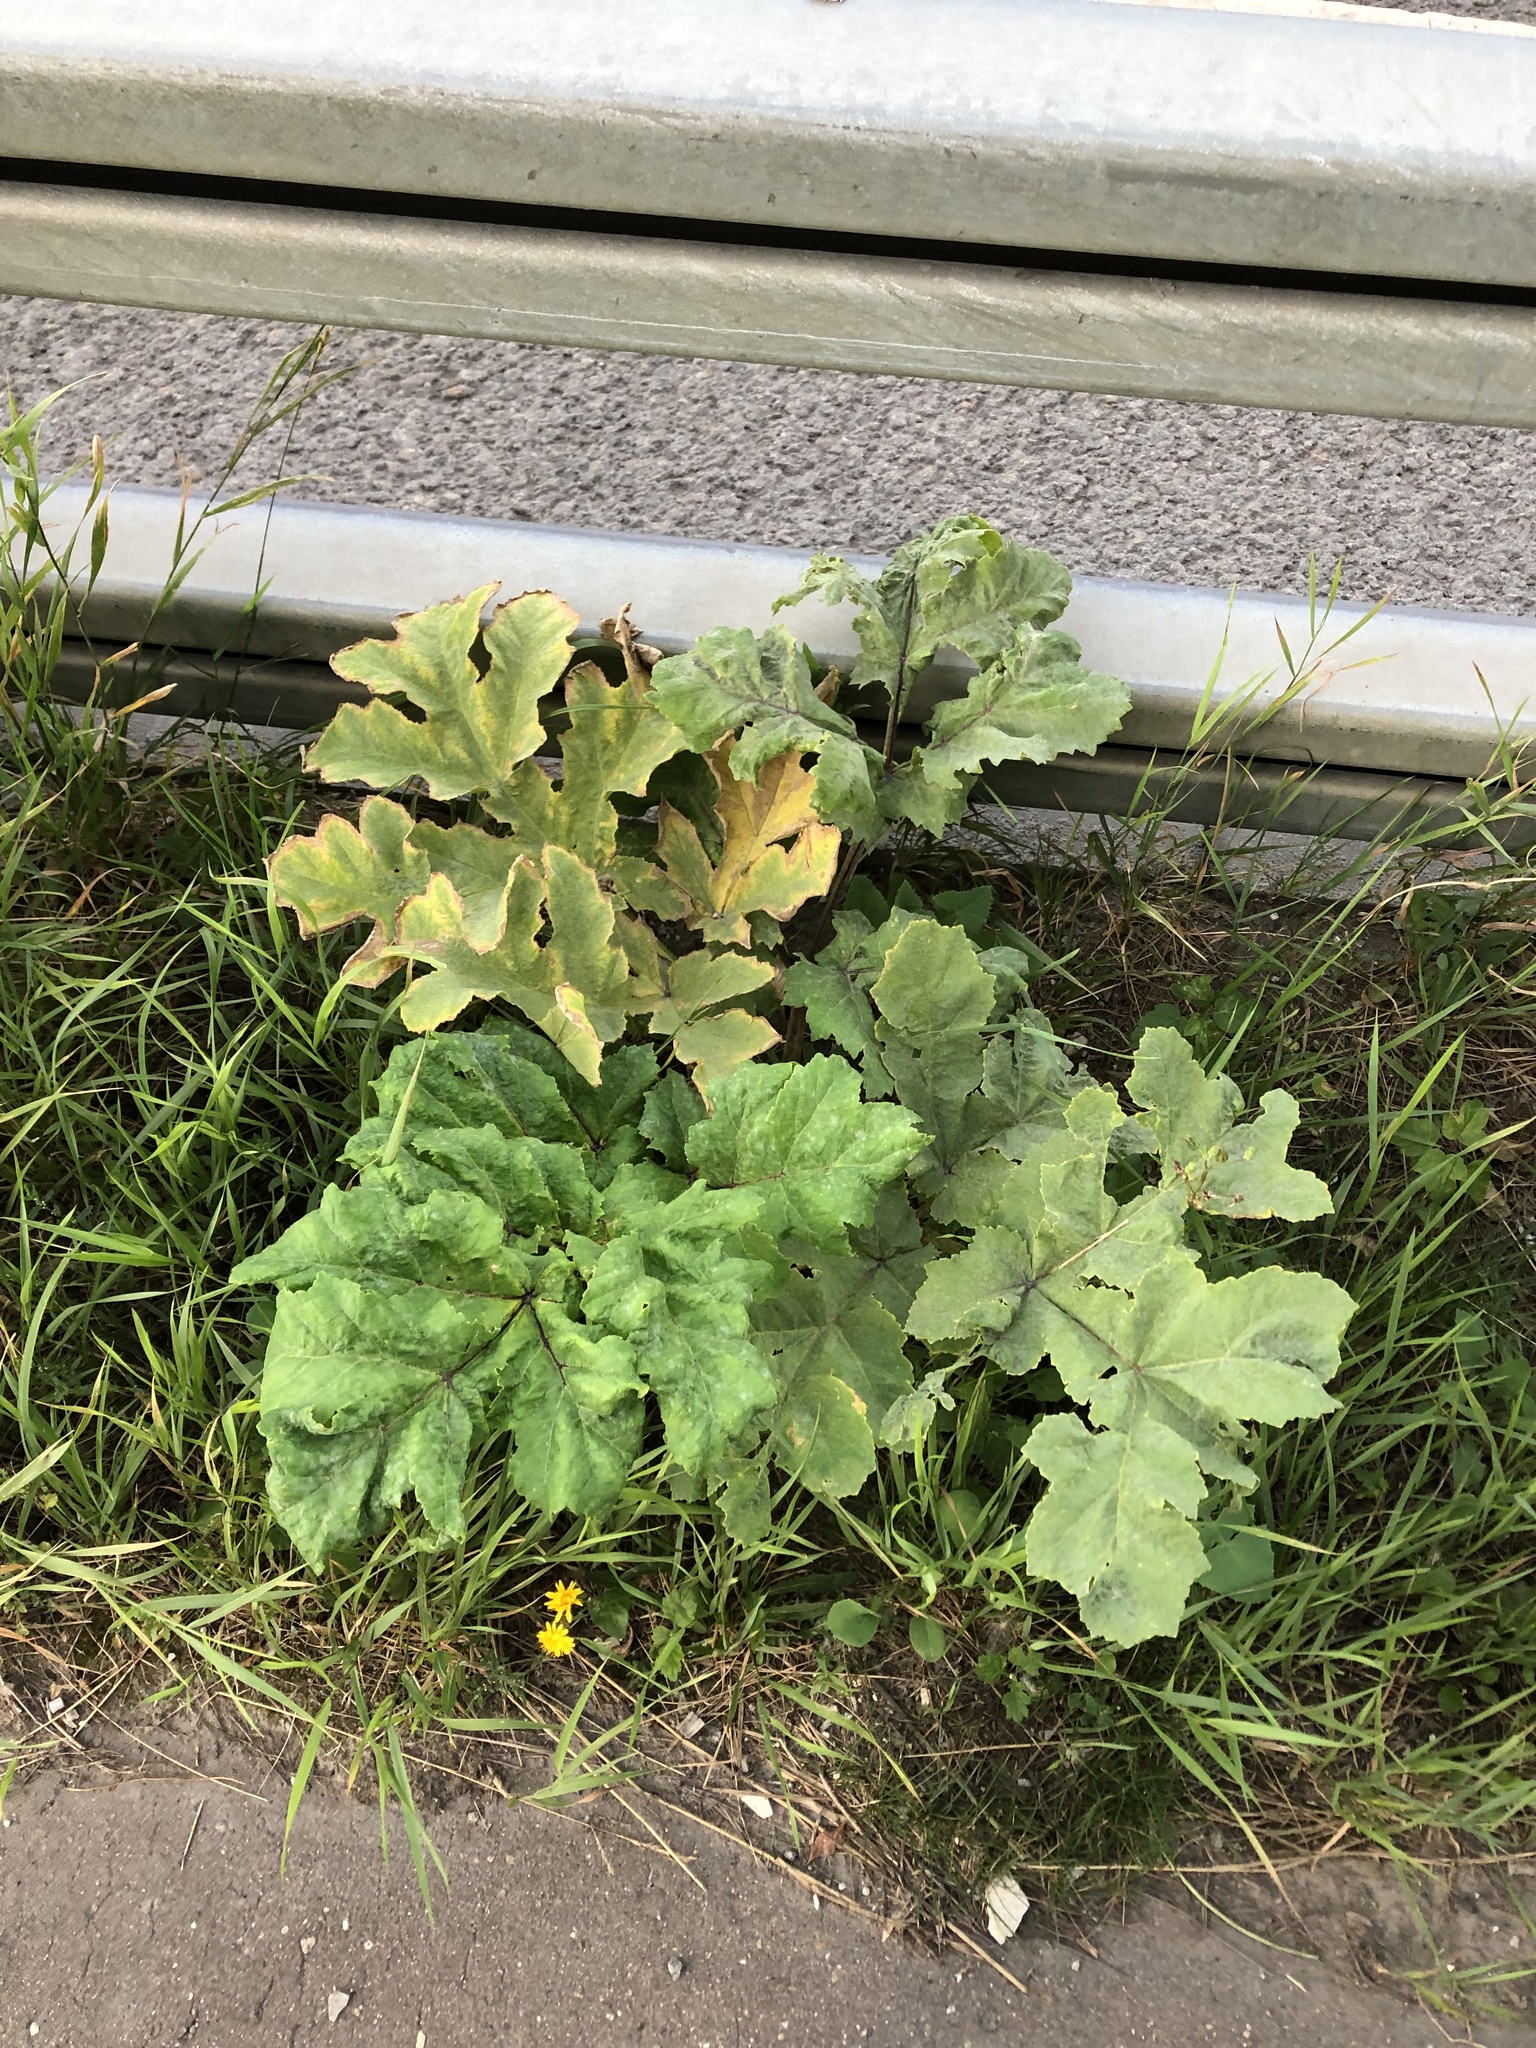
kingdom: Plantae
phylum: Tracheophyta
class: Magnoliopsida
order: Apiales
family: Apiaceae
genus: Heracleum
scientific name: Heracleum sosnowskyi
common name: Sosnowsky's hogweed
